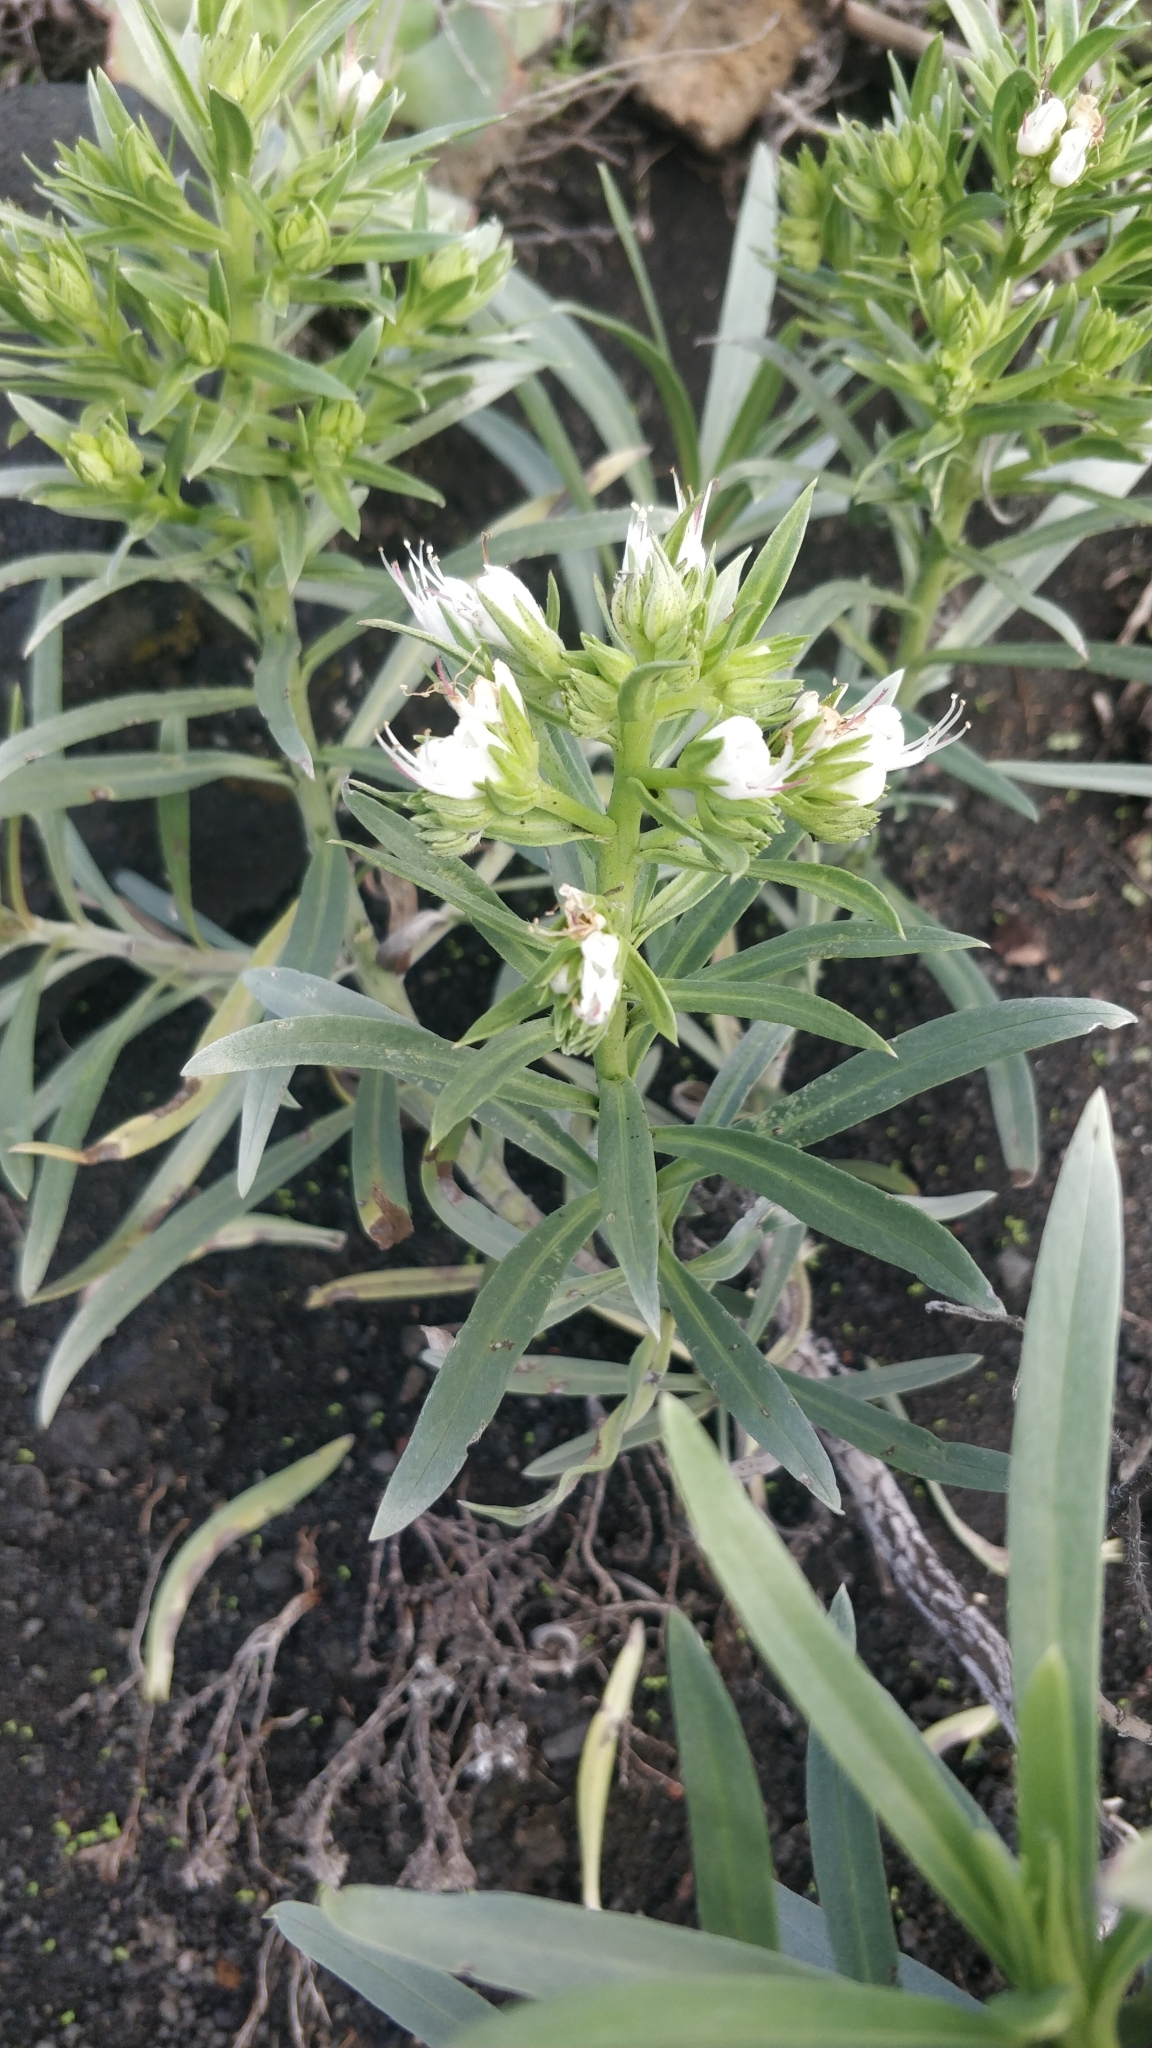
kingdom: Plantae
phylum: Tracheophyta
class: Magnoliopsida
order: Boraginales
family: Boraginaceae
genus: Echium
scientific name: Echium brevirame
